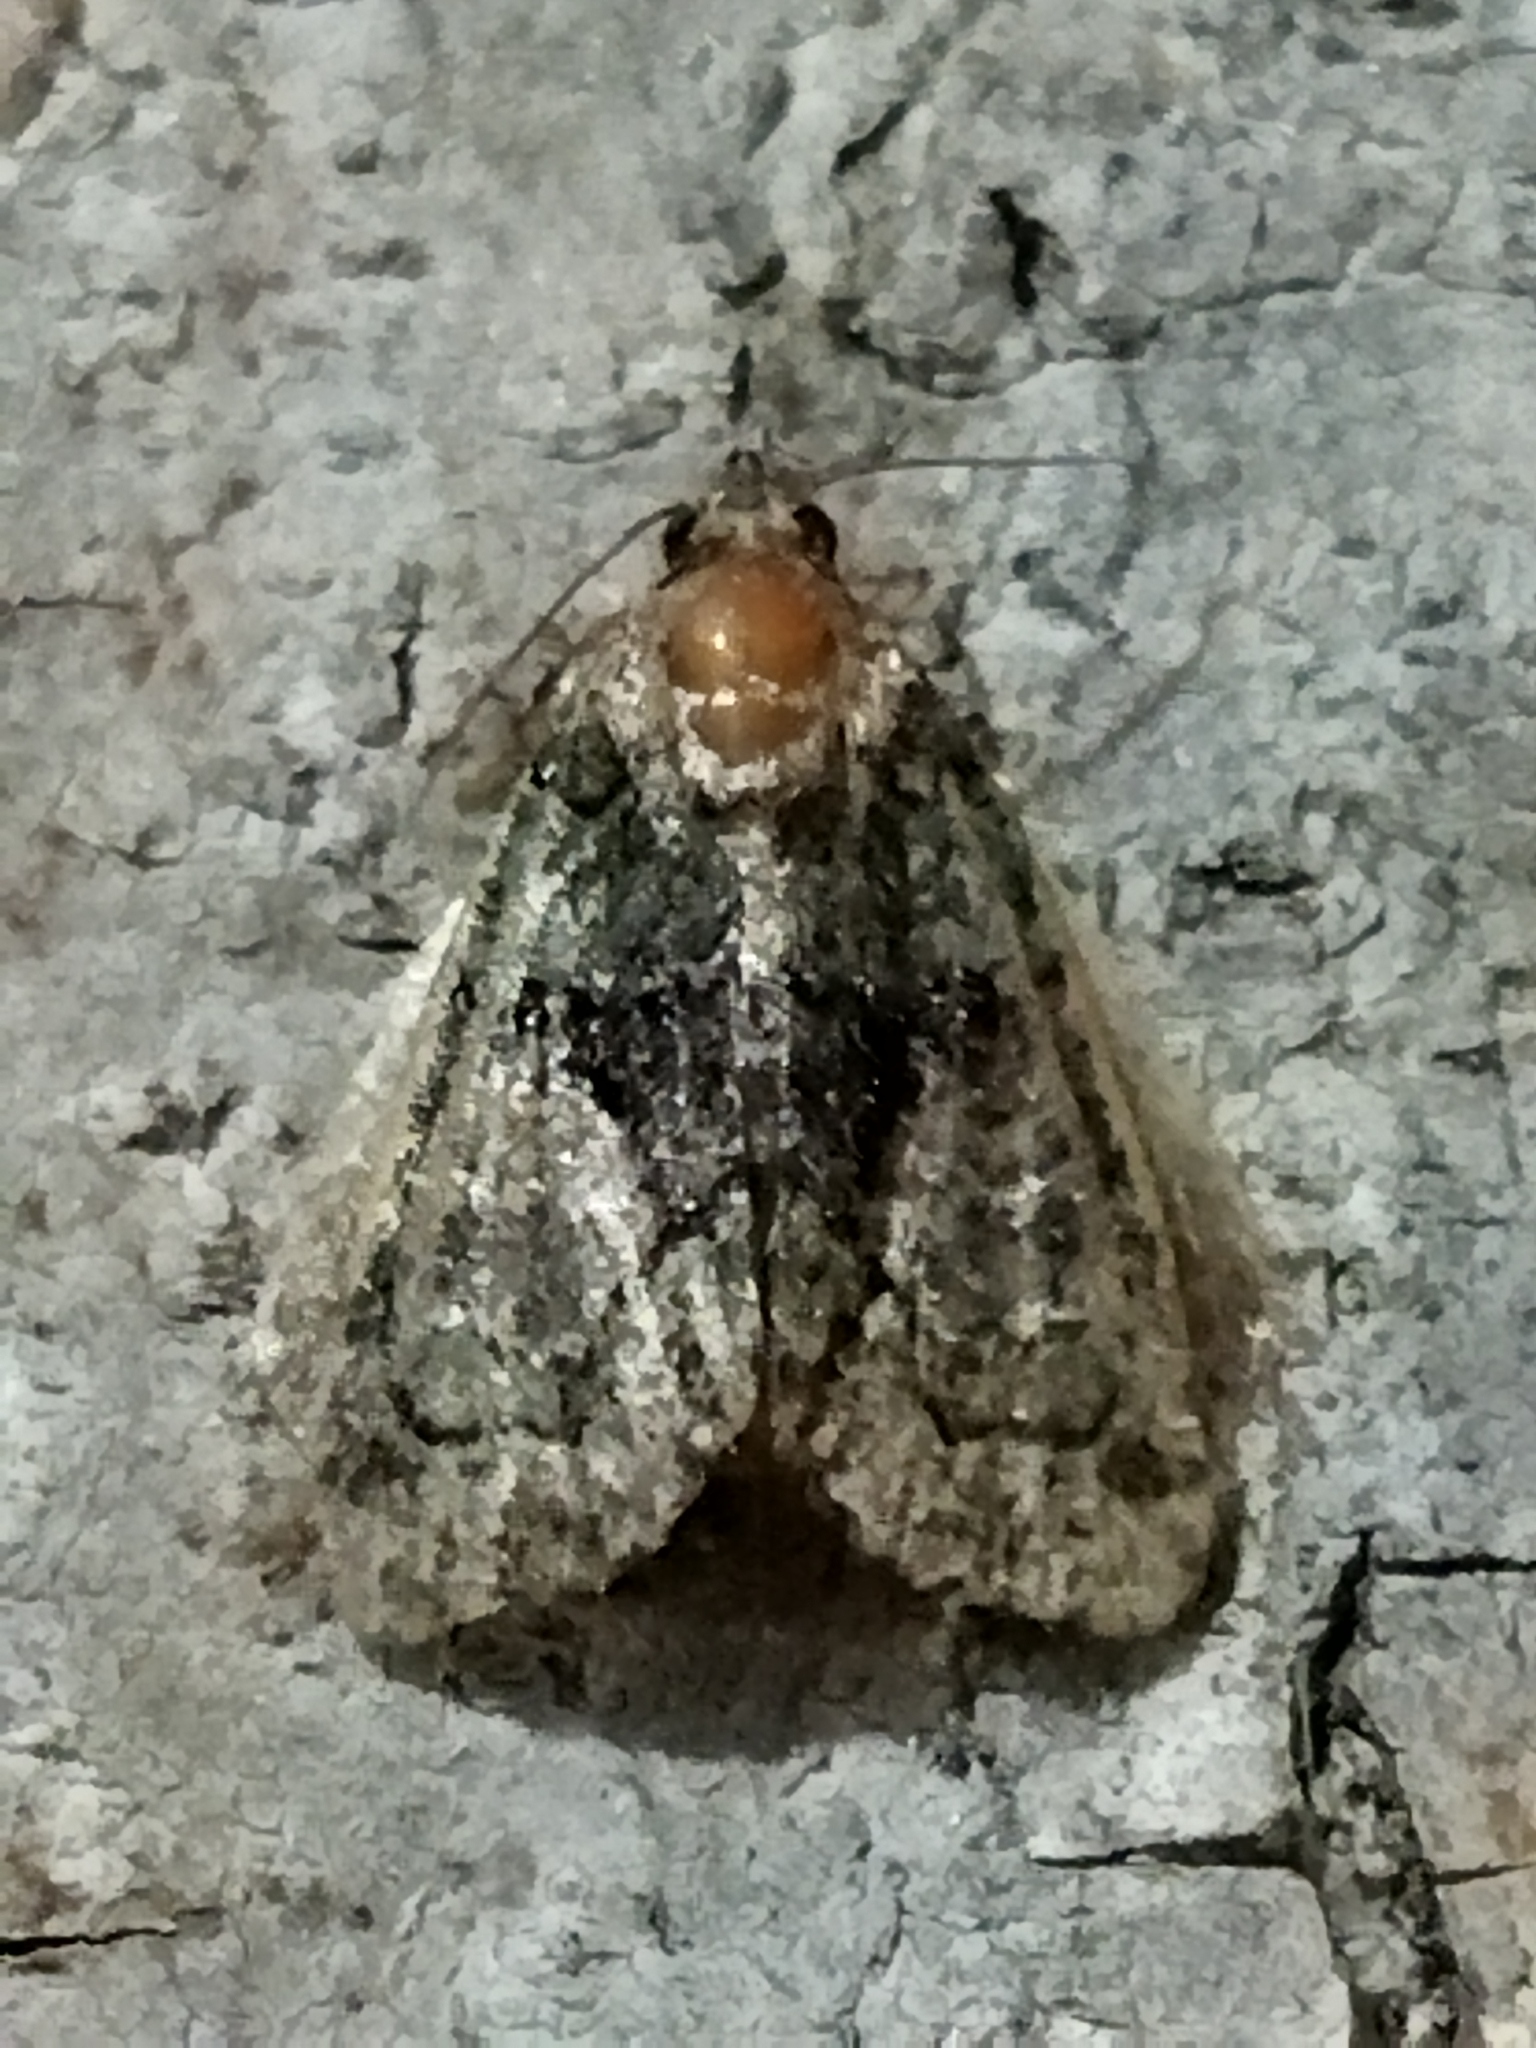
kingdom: Animalia
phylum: Arthropoda
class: Insecta
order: Lepidoptera
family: Noctuidae
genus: Cryphia
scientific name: Cryphia
